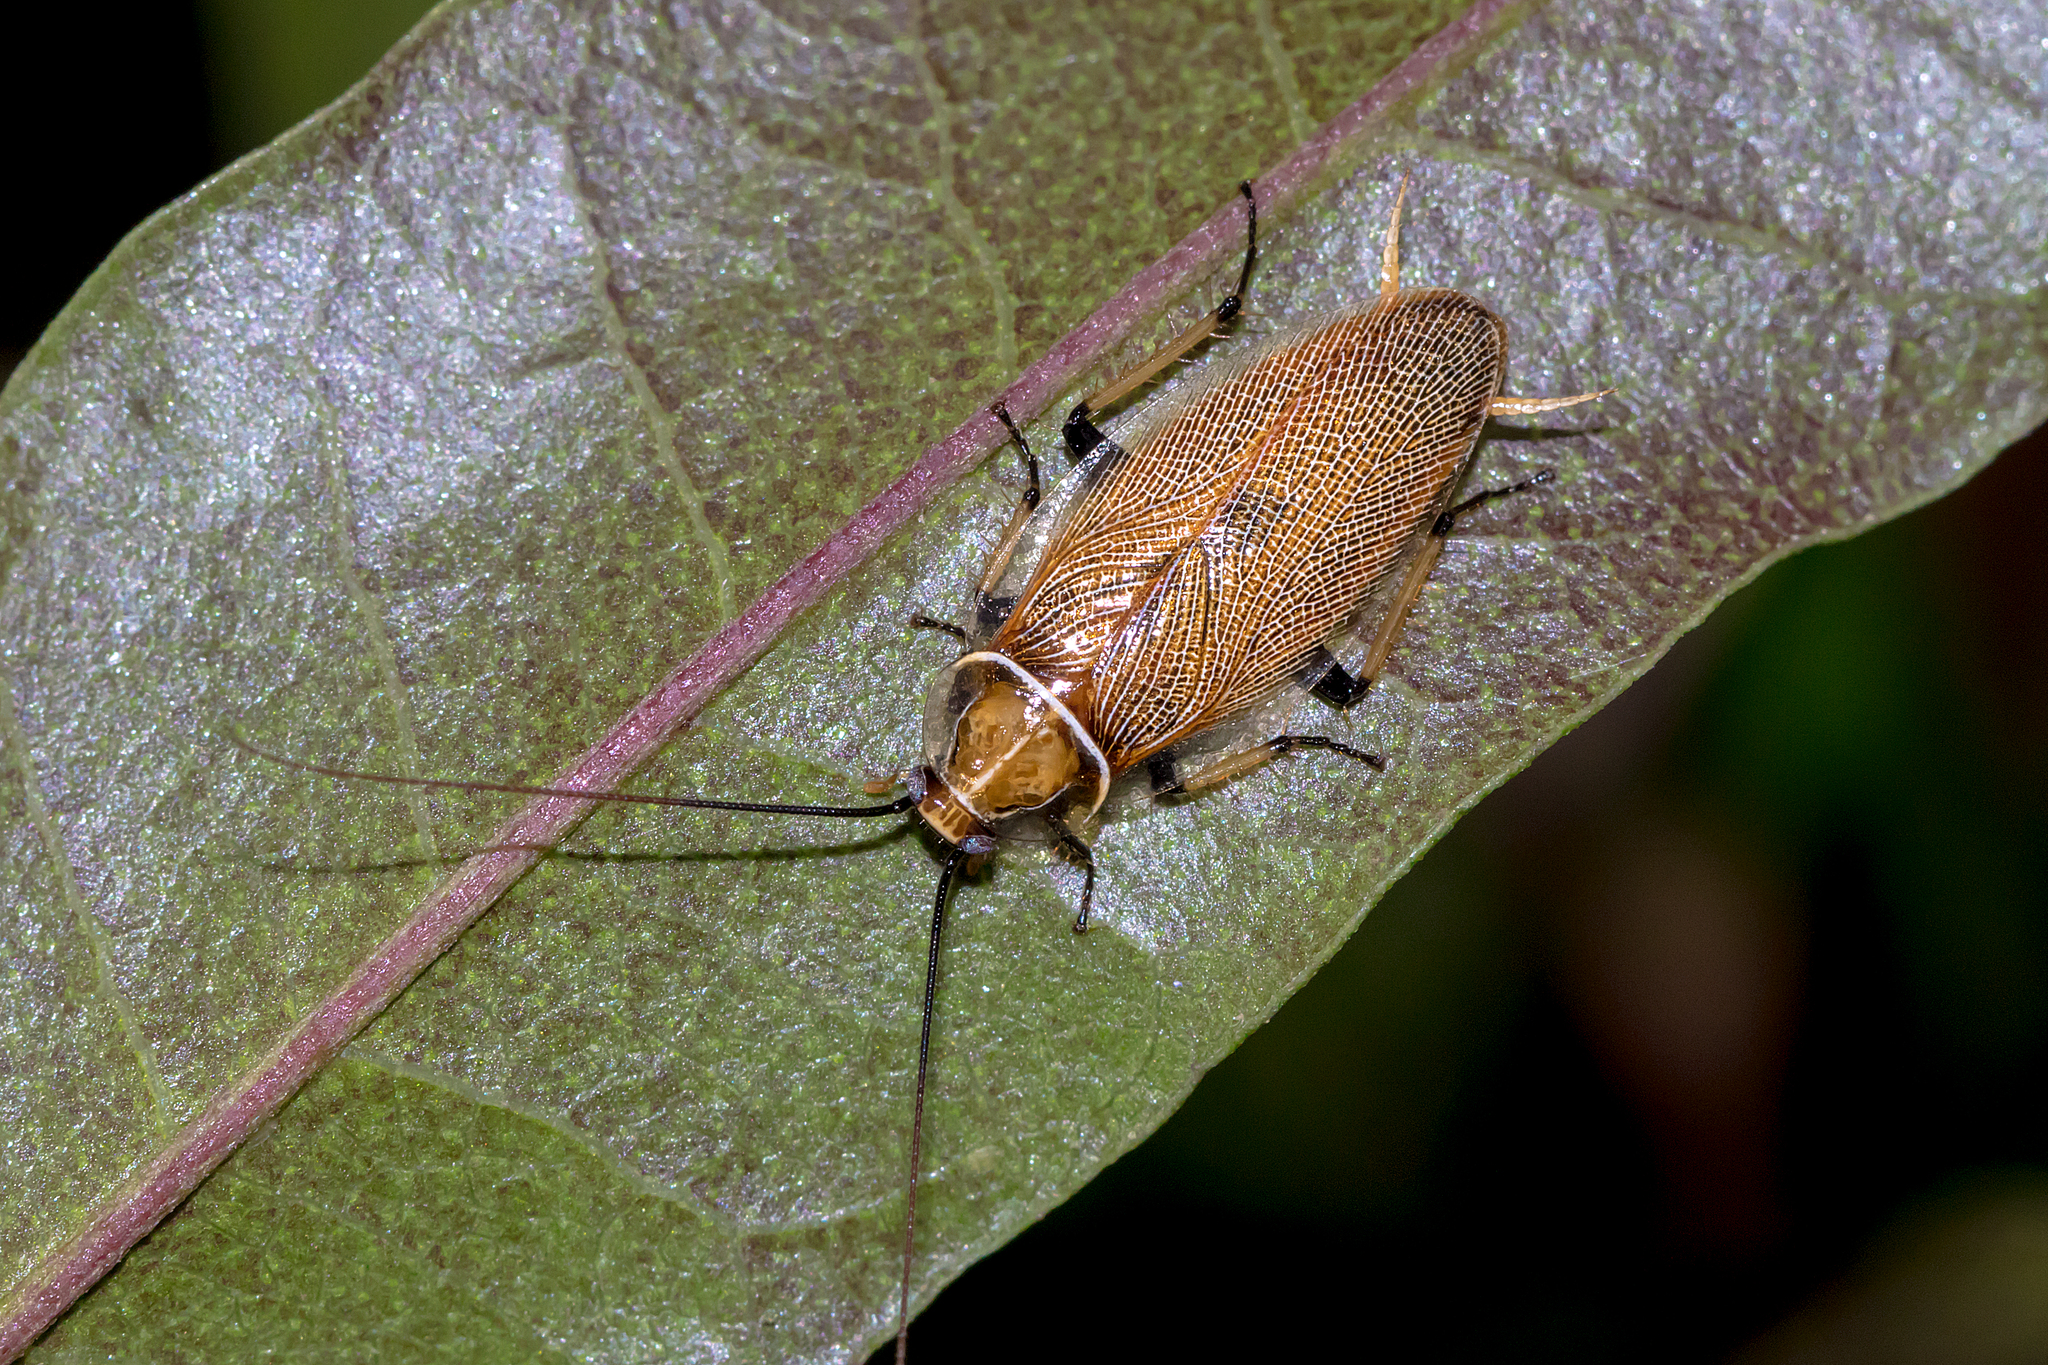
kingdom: Animalia
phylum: Arthropoda
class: Insecta
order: Blattodea
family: Ectobiidae
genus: Balta
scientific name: Balta bicolor
